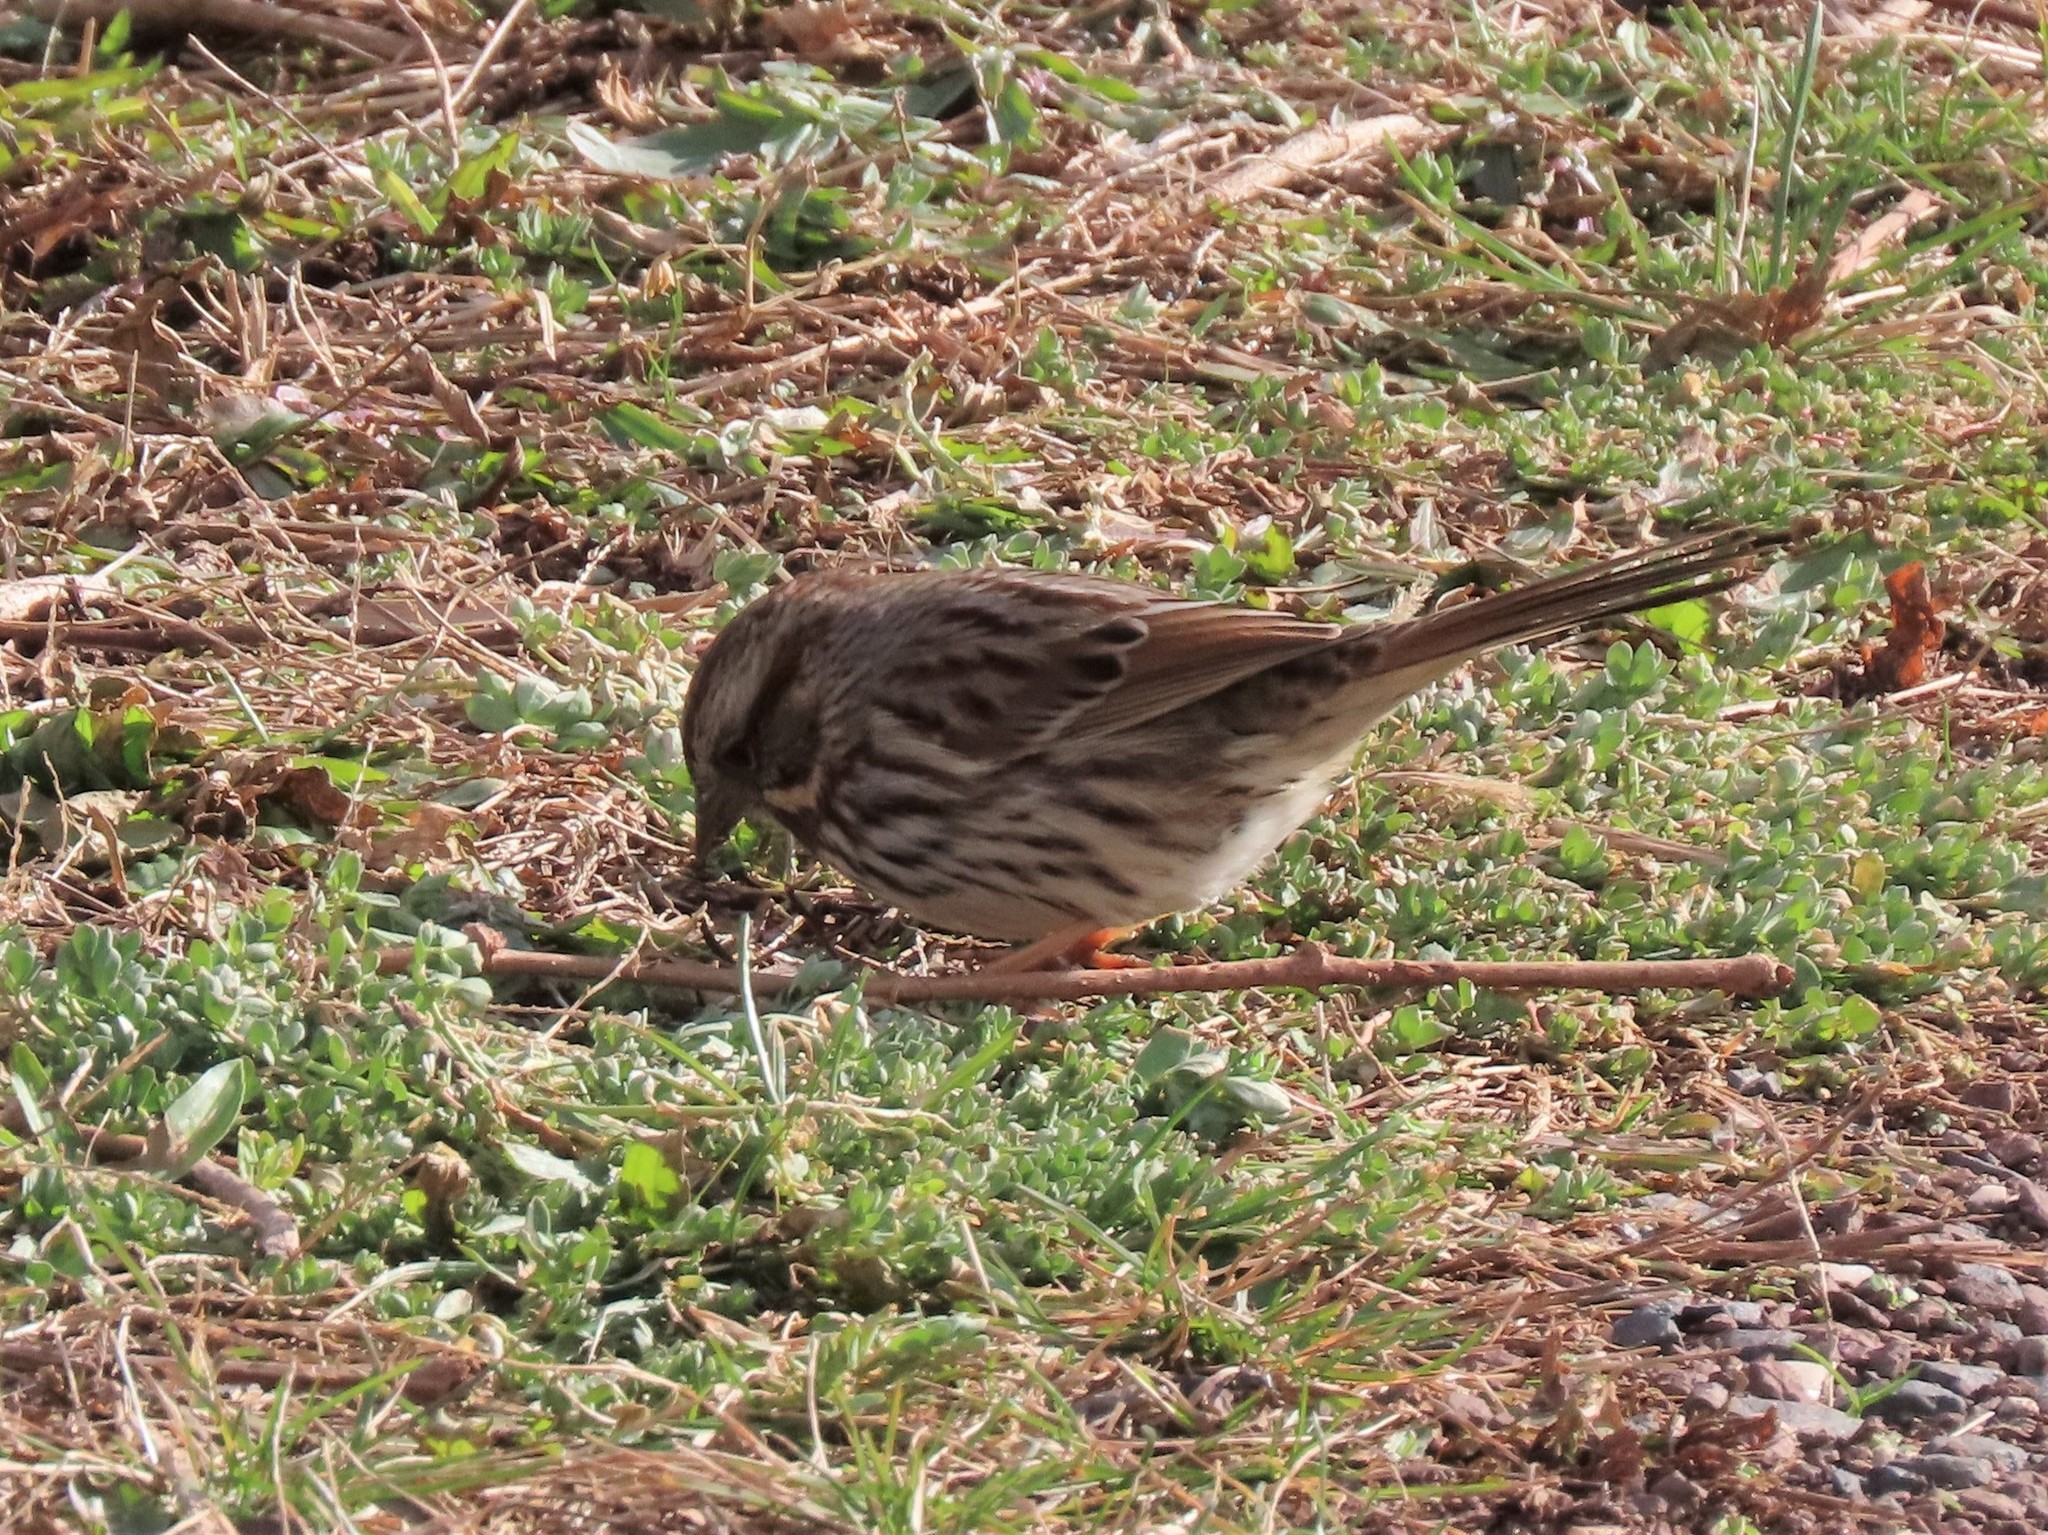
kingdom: Animalia
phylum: Chordata
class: Aves
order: Passeriformes
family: Passerellidae
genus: Melospiza
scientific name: Melospiza melodia
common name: Song sparrow
